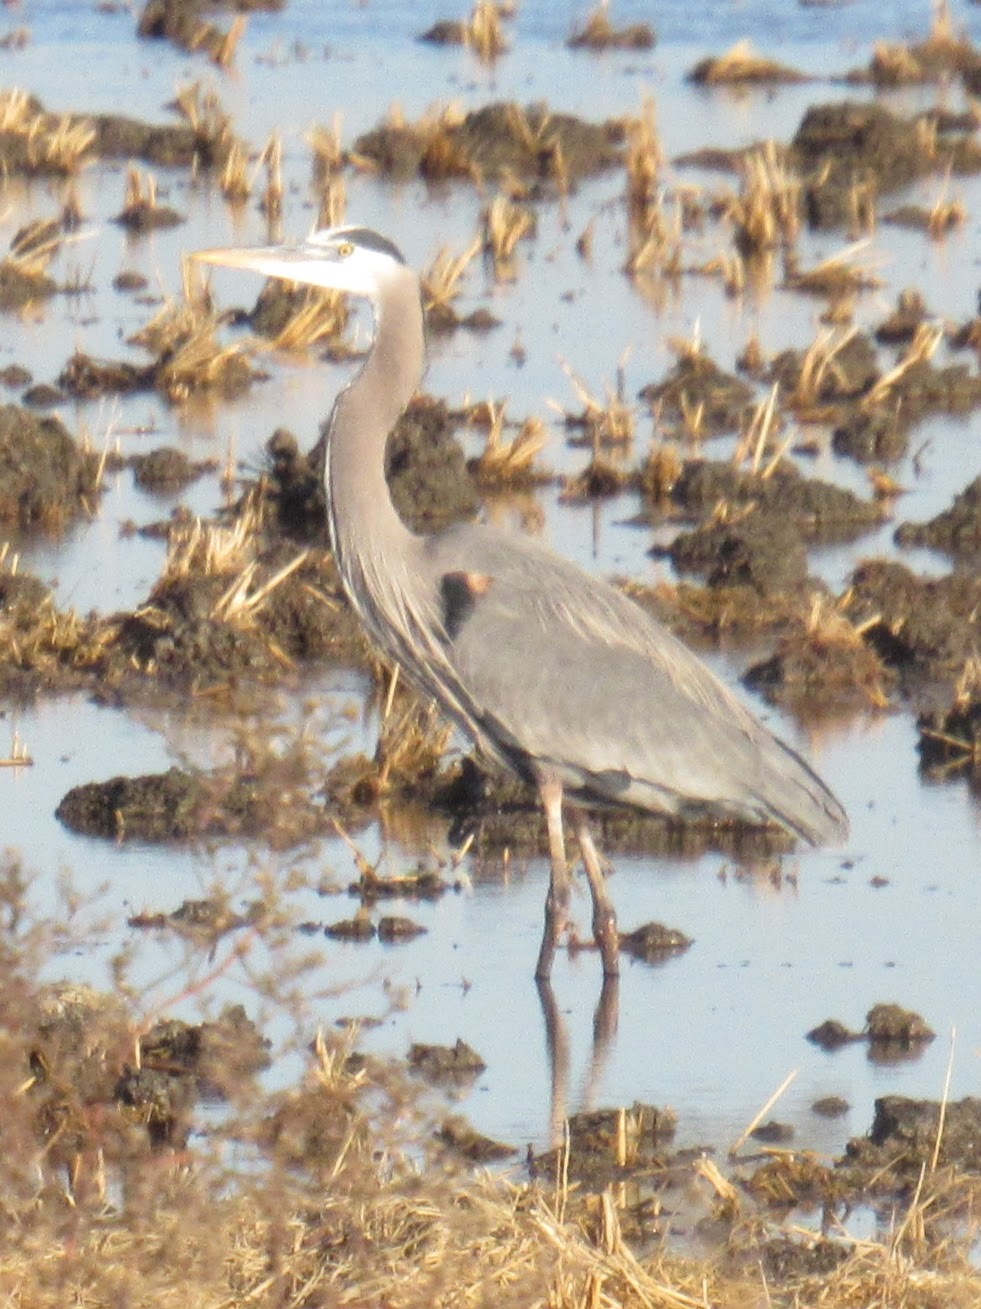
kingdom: Animalia
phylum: Chordata
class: Aves
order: Pelecaniformes
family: Ardeidae
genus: Ardea
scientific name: Ardea herodias
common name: Great blue heron
